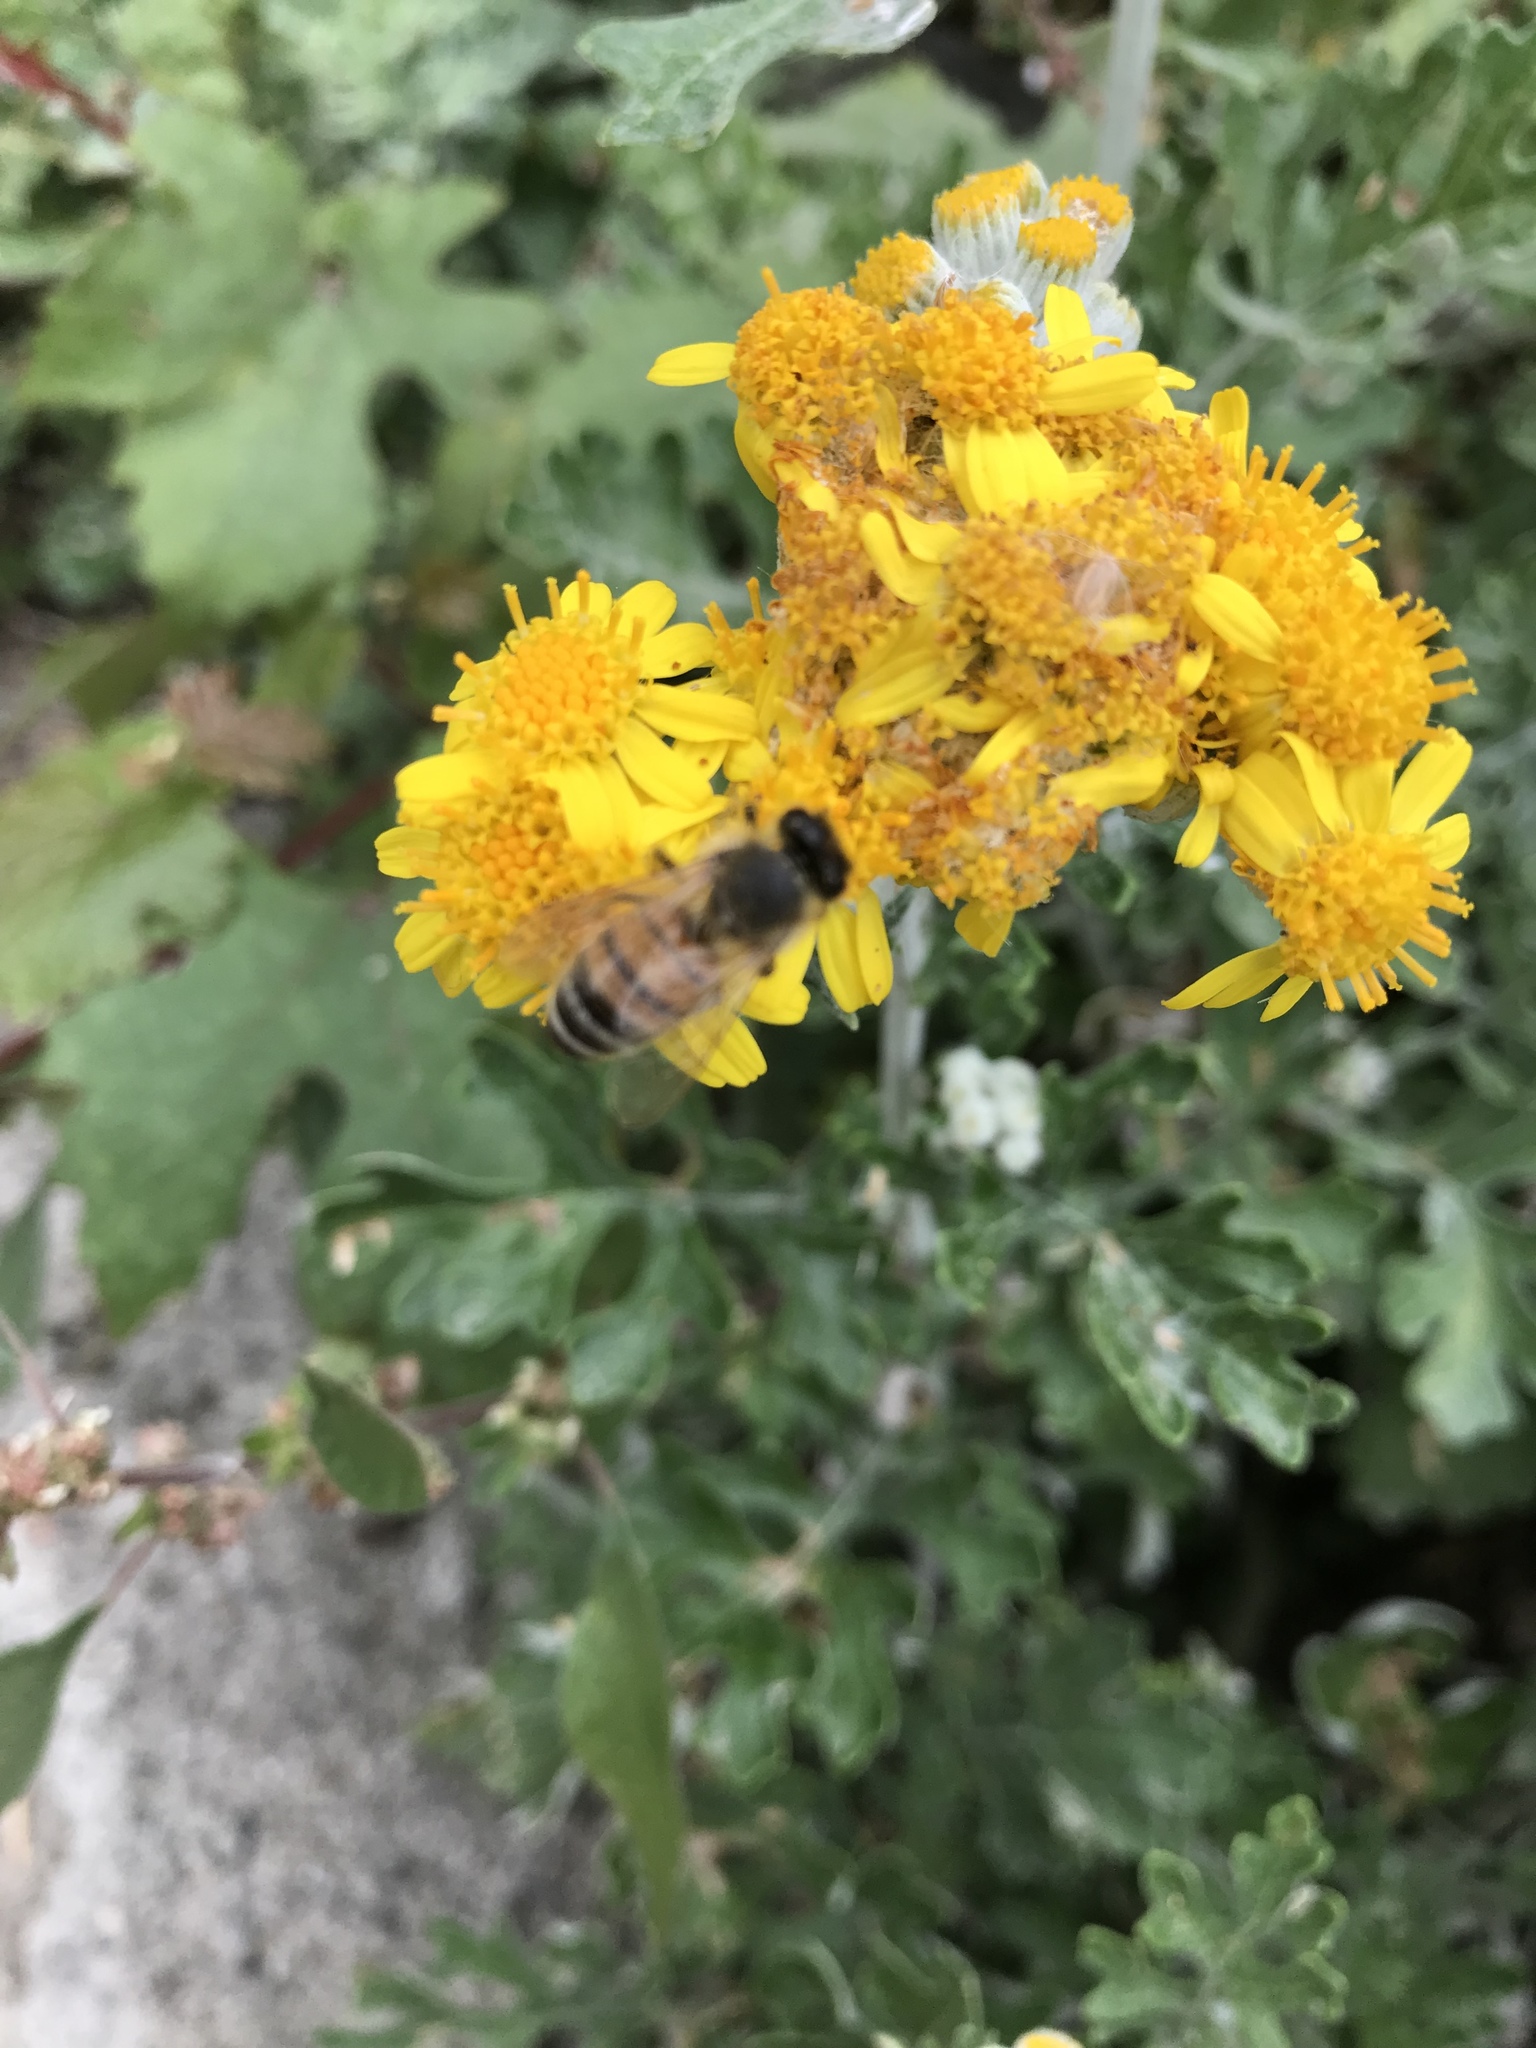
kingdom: Animalia
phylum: Arthropoda
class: Insecta
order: Hymenoptera
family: Apidae
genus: Apis
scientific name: Apis mellifera
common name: Honey bee
